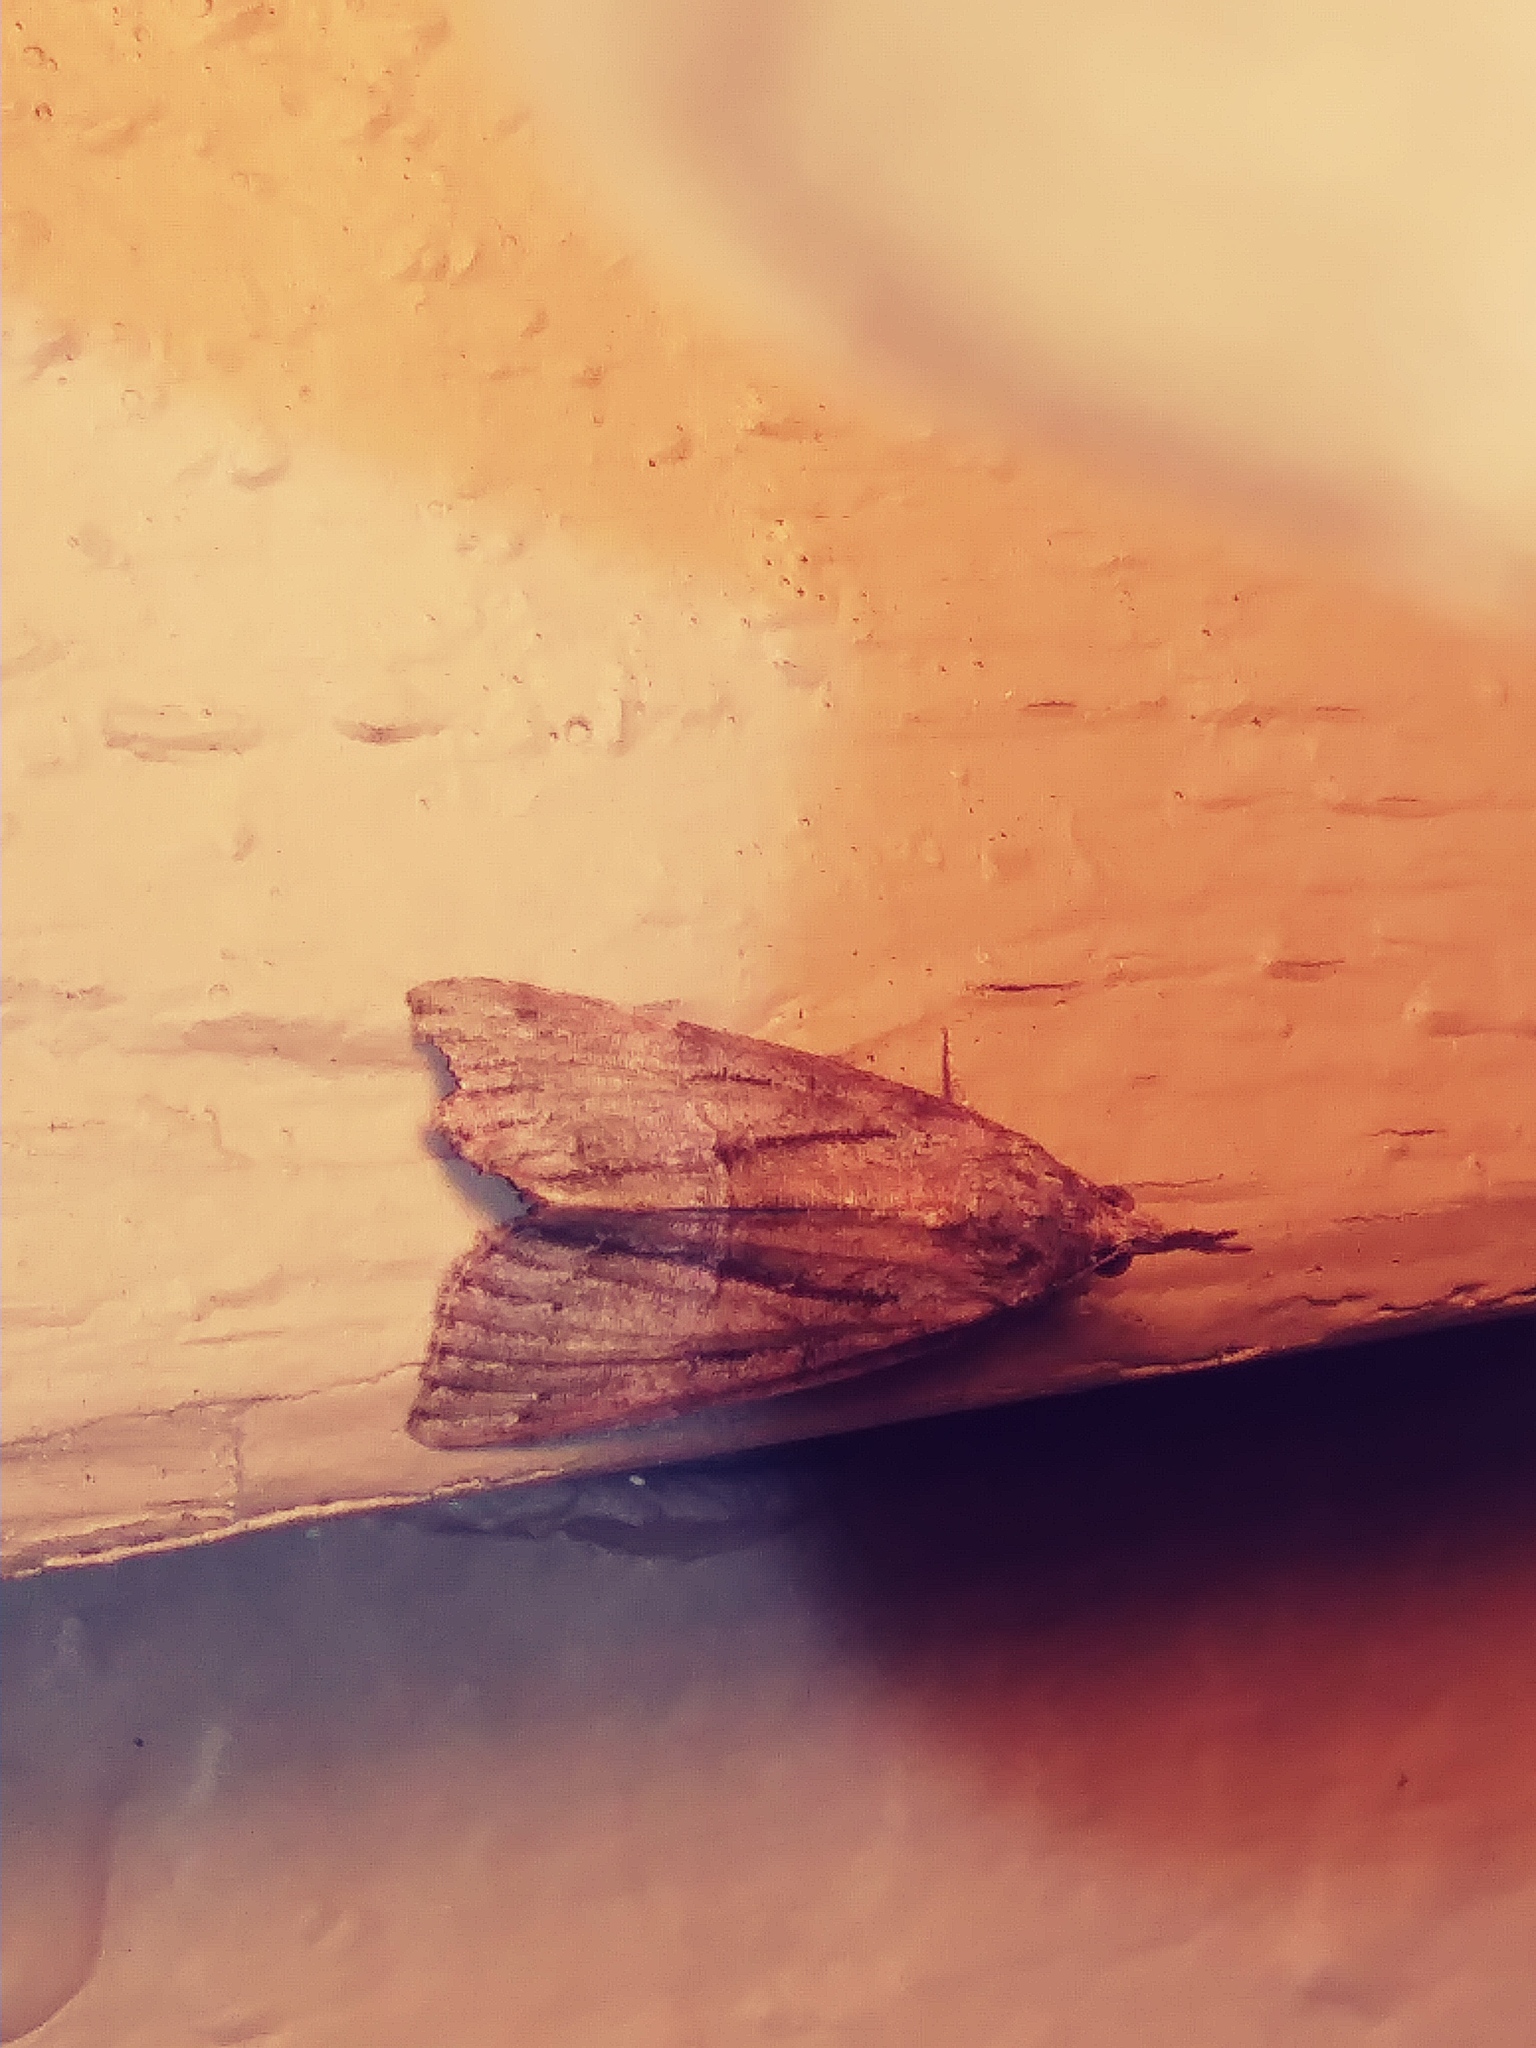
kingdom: Animalia
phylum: Arthropoda
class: Insecta
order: Lepidoptera
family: Erebidae
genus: Hypena
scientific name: Hypena scabra
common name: Green cloverworm
